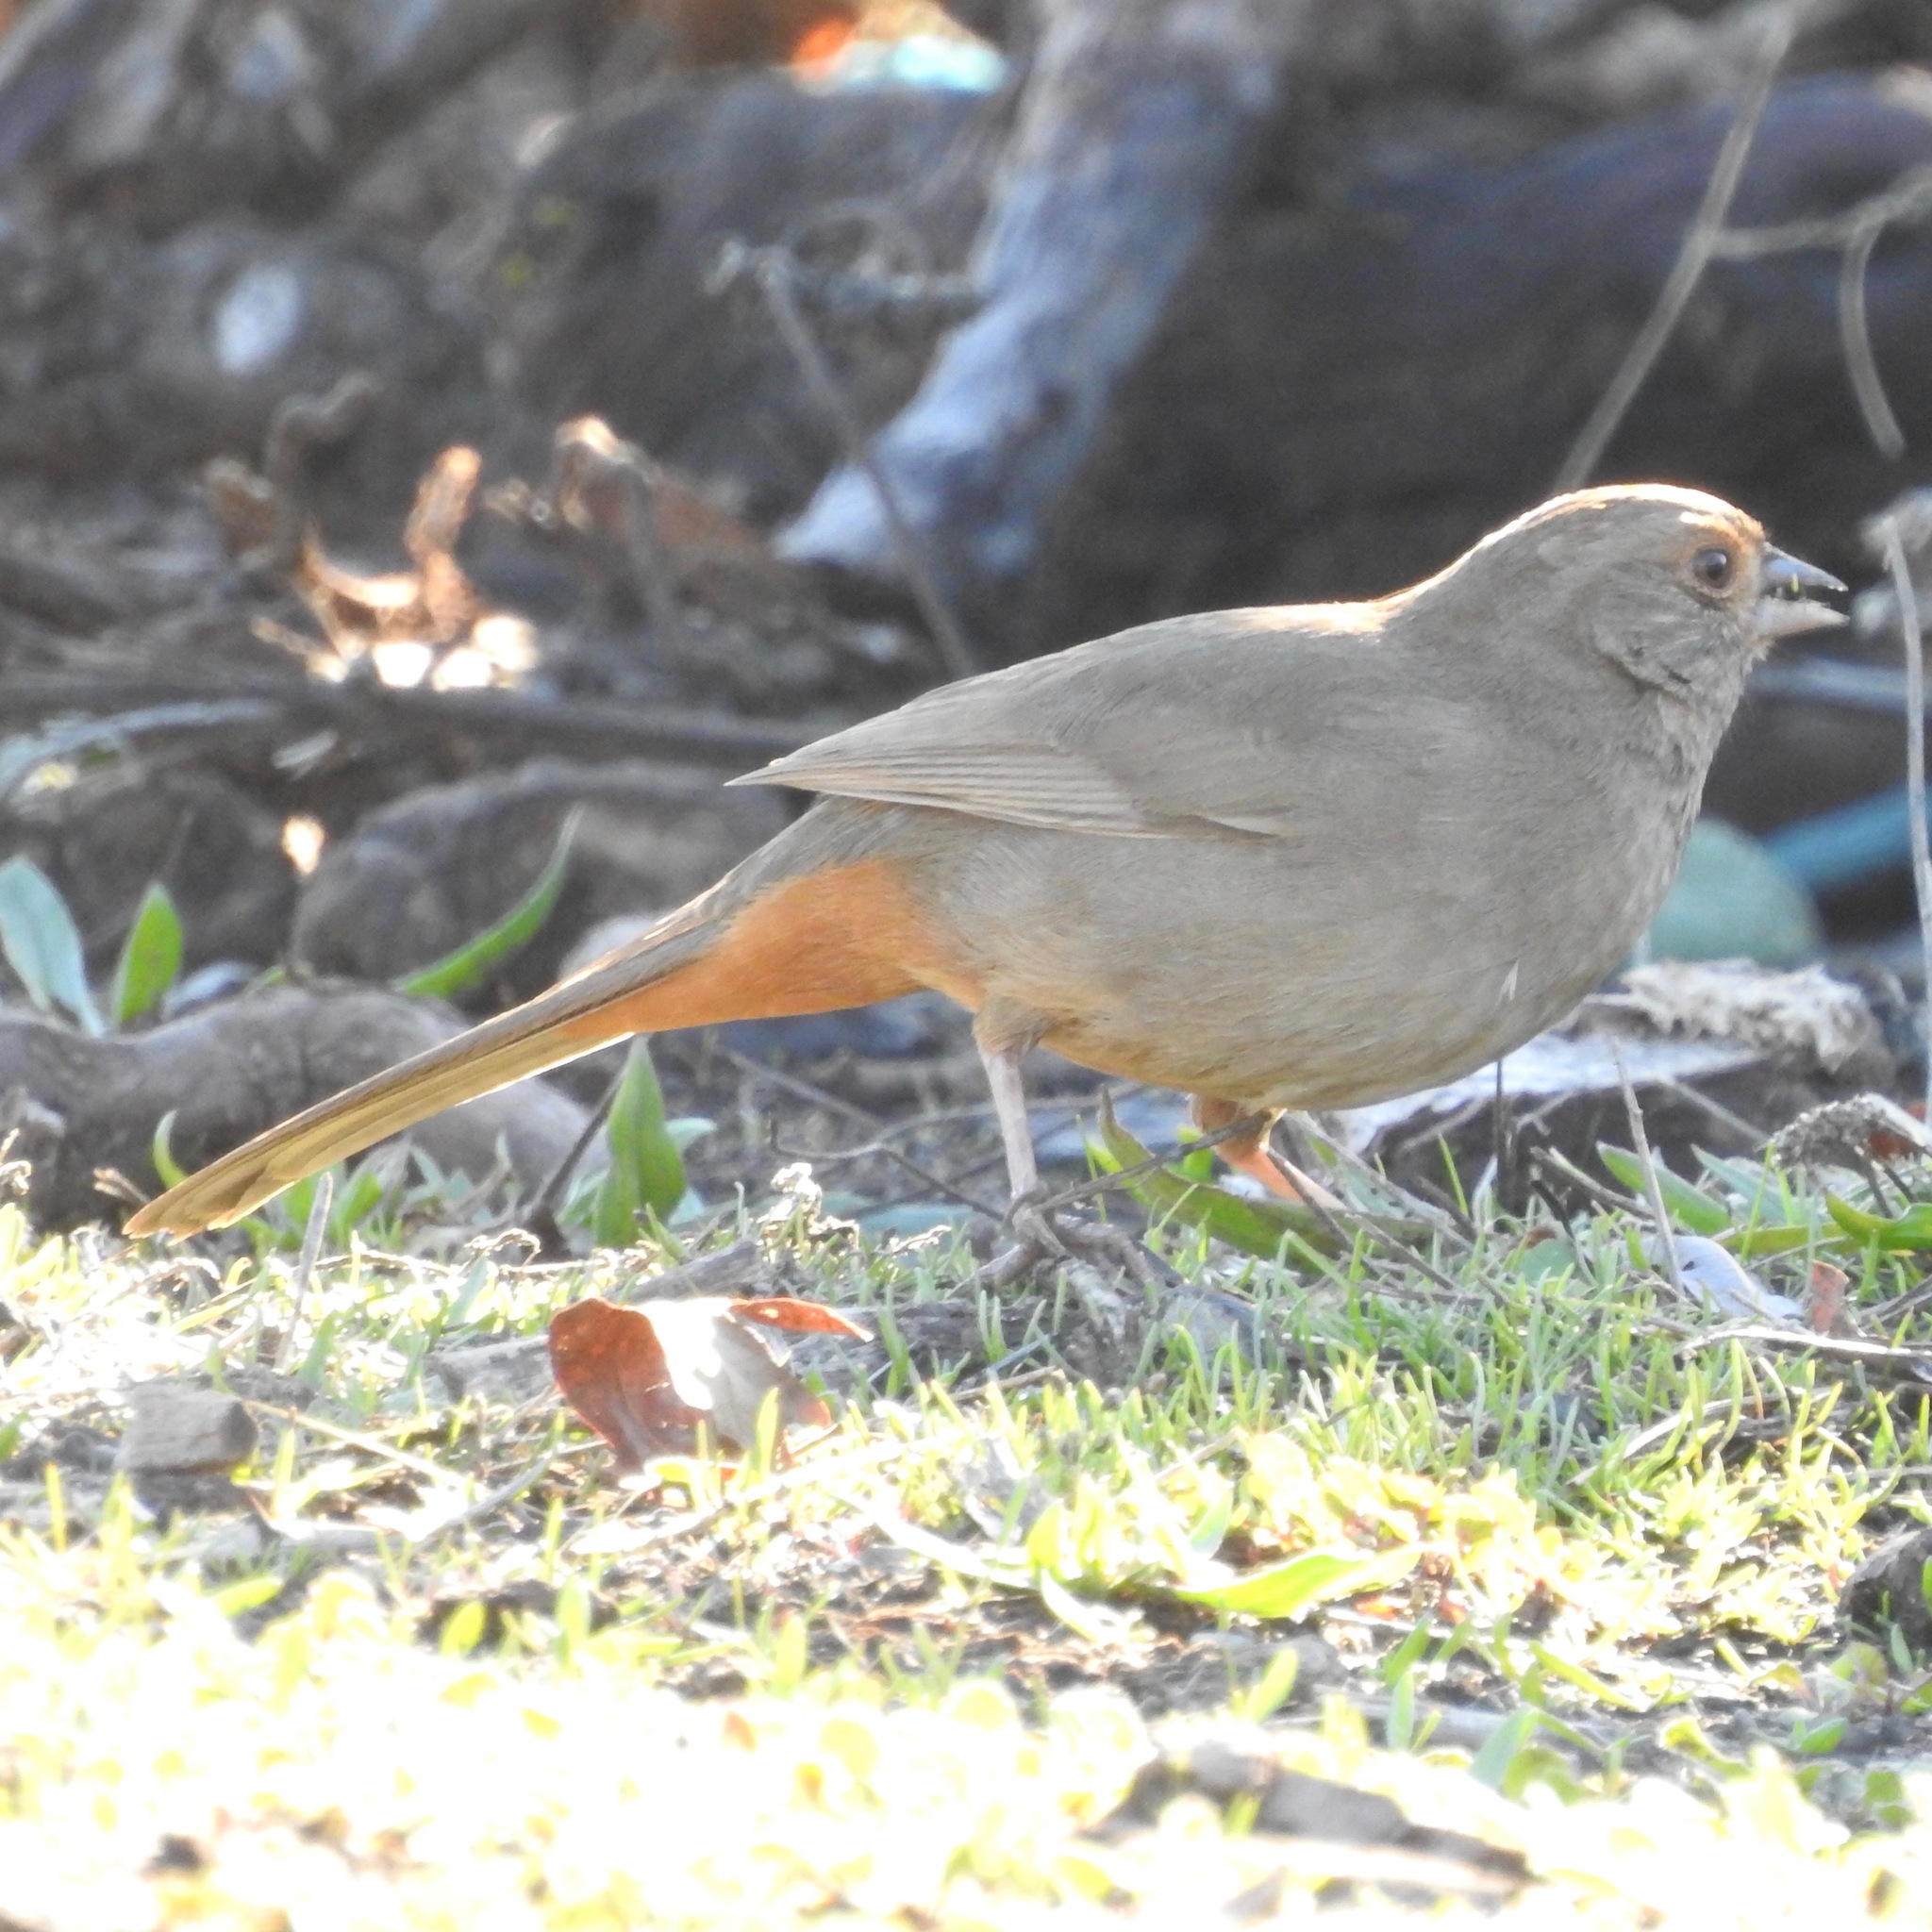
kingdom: Animalia
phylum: Chordata
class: Aves
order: Passeriformes
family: Passerellidae
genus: Melozone
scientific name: Melozone crissalis
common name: California towhee
